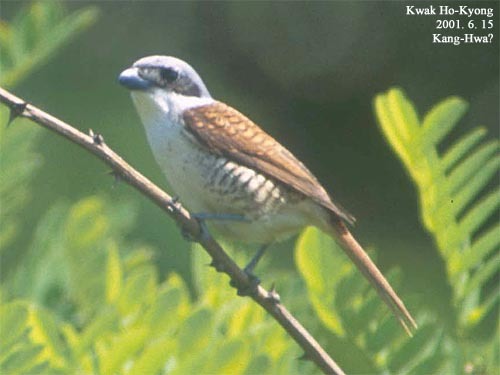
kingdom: Animalia
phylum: Chordata
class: Aves
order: Passeriformes
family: Laniidae
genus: Lanius
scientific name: Lanius tigrinus
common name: Tiger shrike
